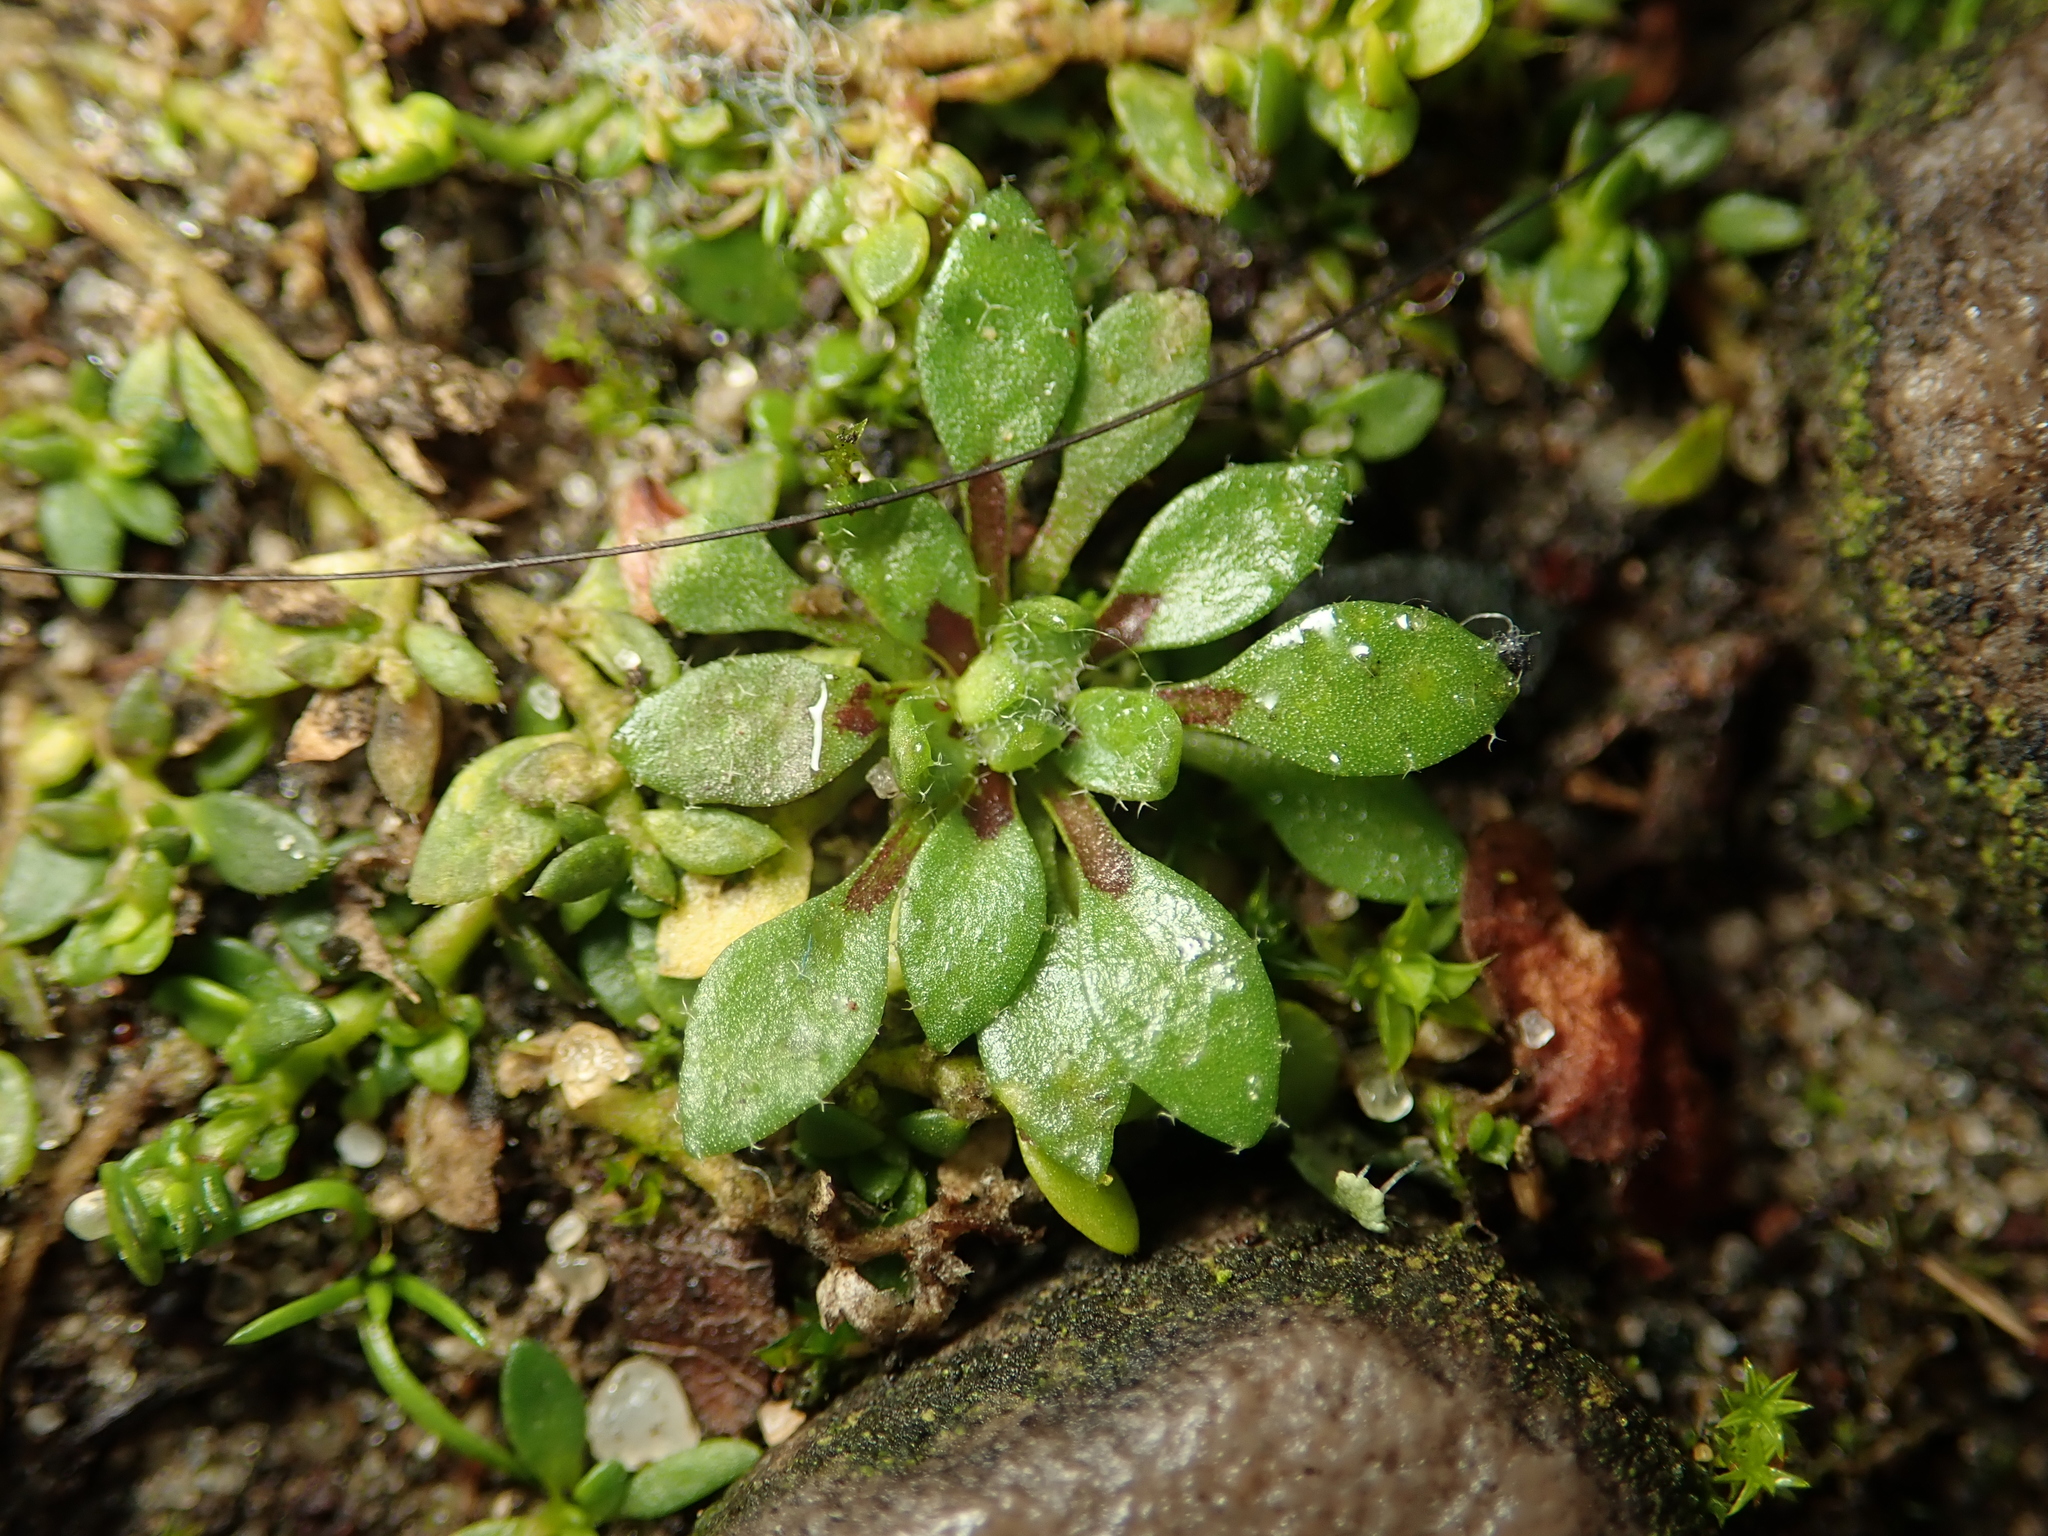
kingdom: Plantae
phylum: Tracheophyta
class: Magnoliopsida
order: Brassicales
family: Brassicaceae
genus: Draba
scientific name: Draba verna
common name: Spring draba
